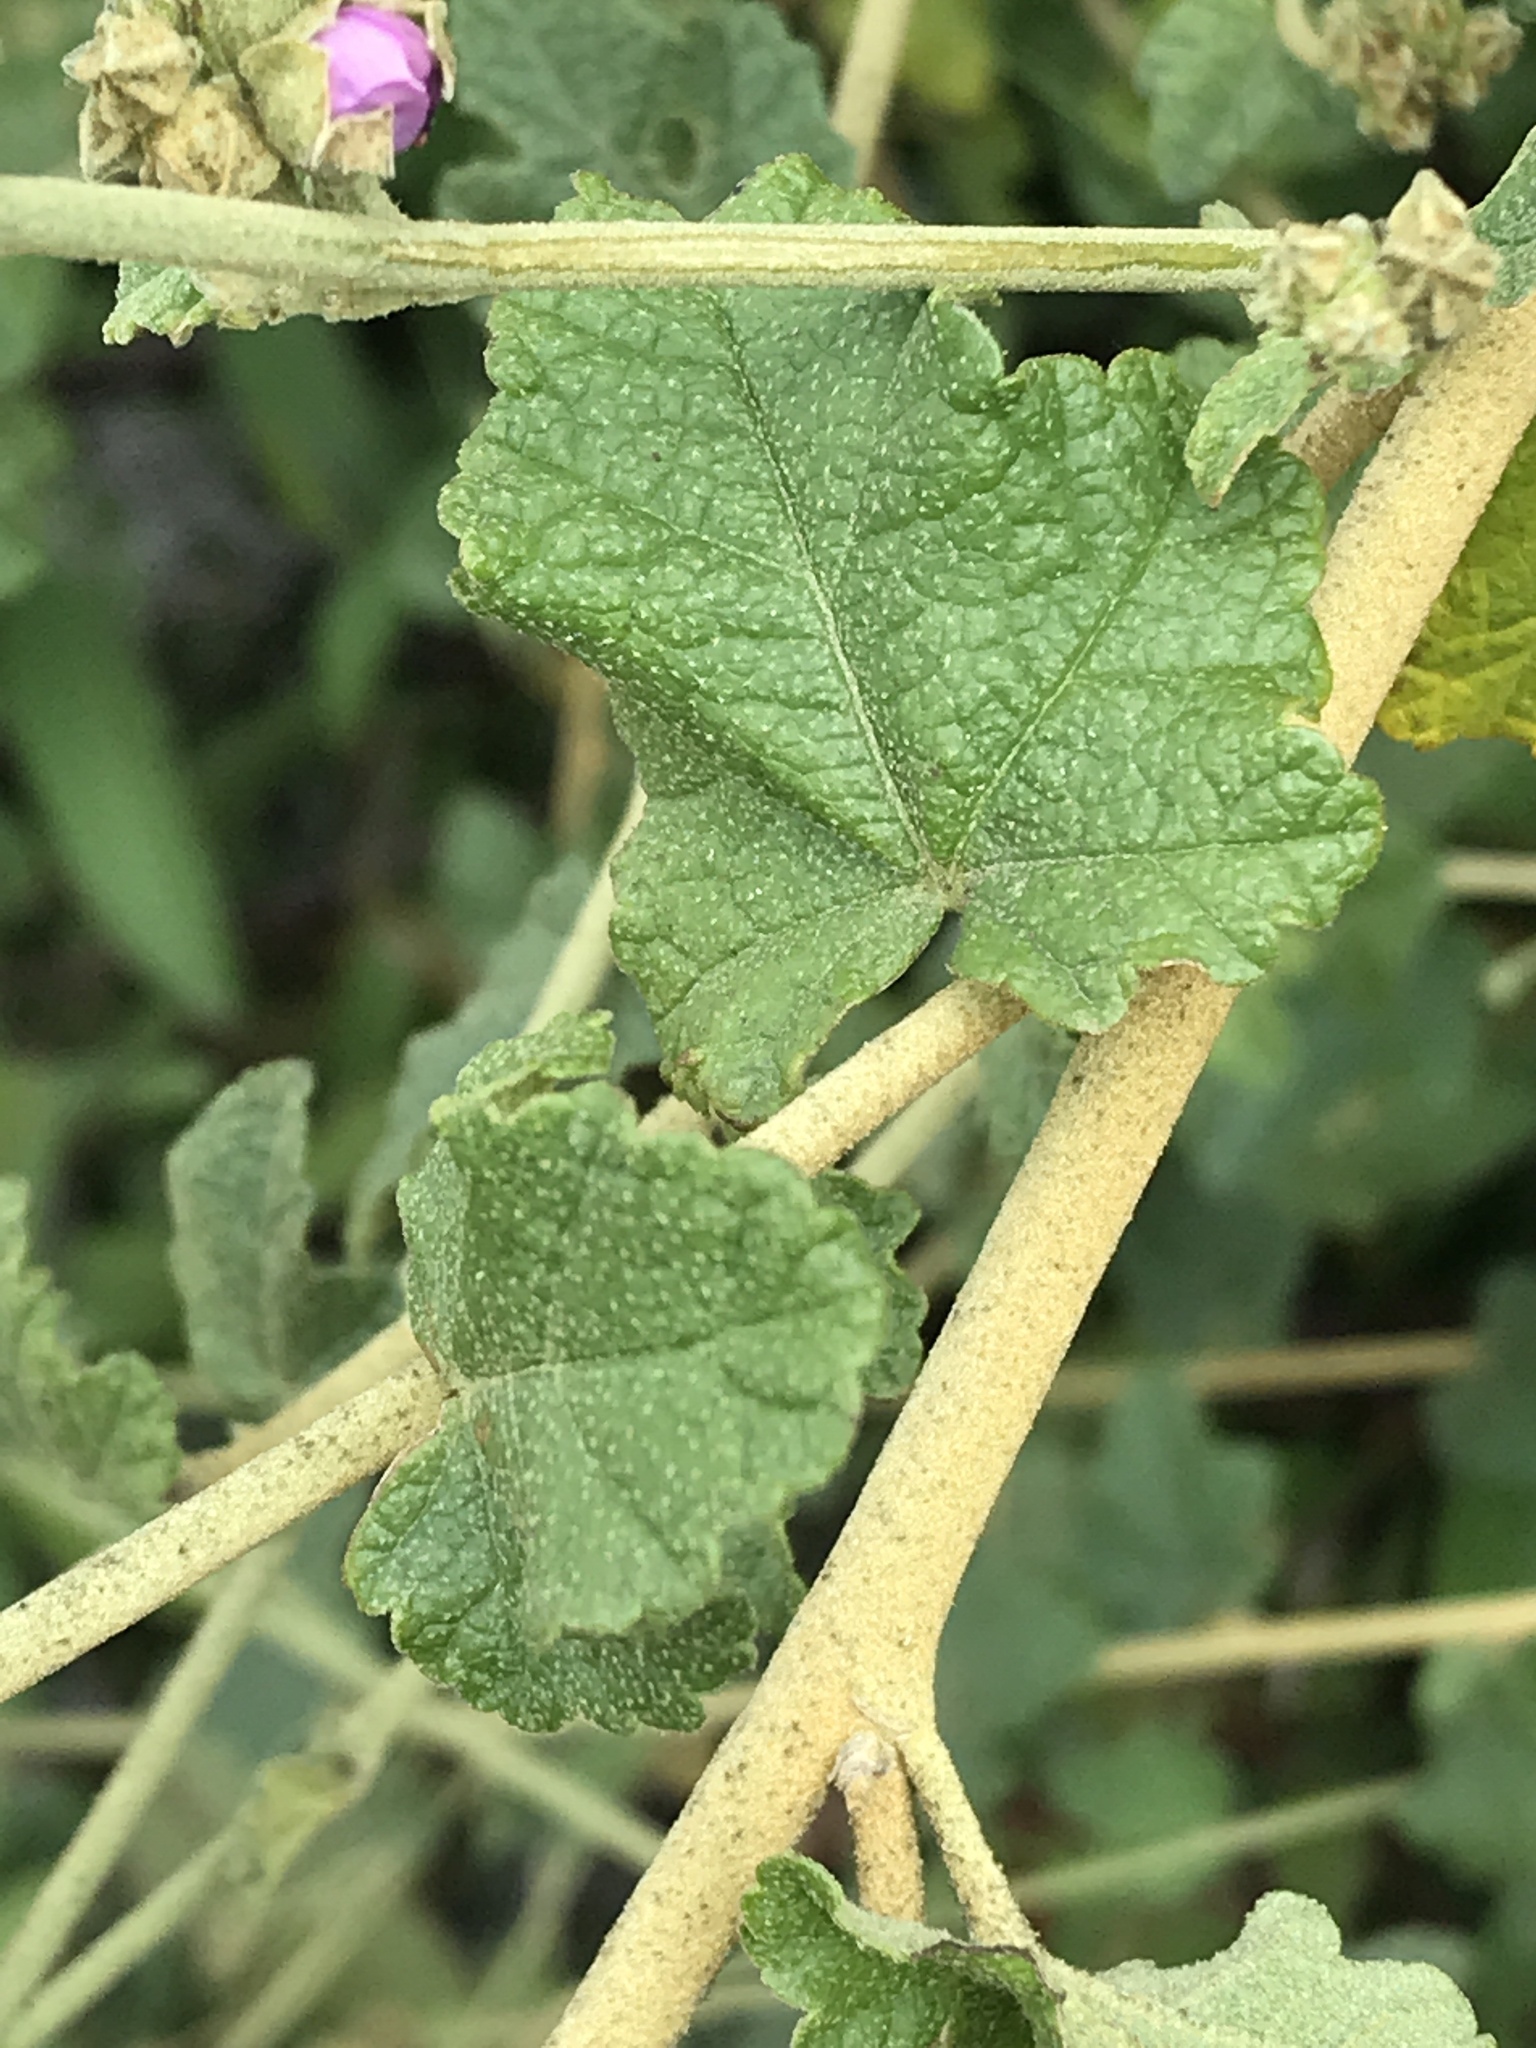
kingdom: Plantae
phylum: Tracheophyta
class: Magnoliopsida
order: Malvales
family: Malvaceae
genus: Malacothamnus
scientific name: Malacothamnus fasciculatus
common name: Sant cruz island bush-mallow
